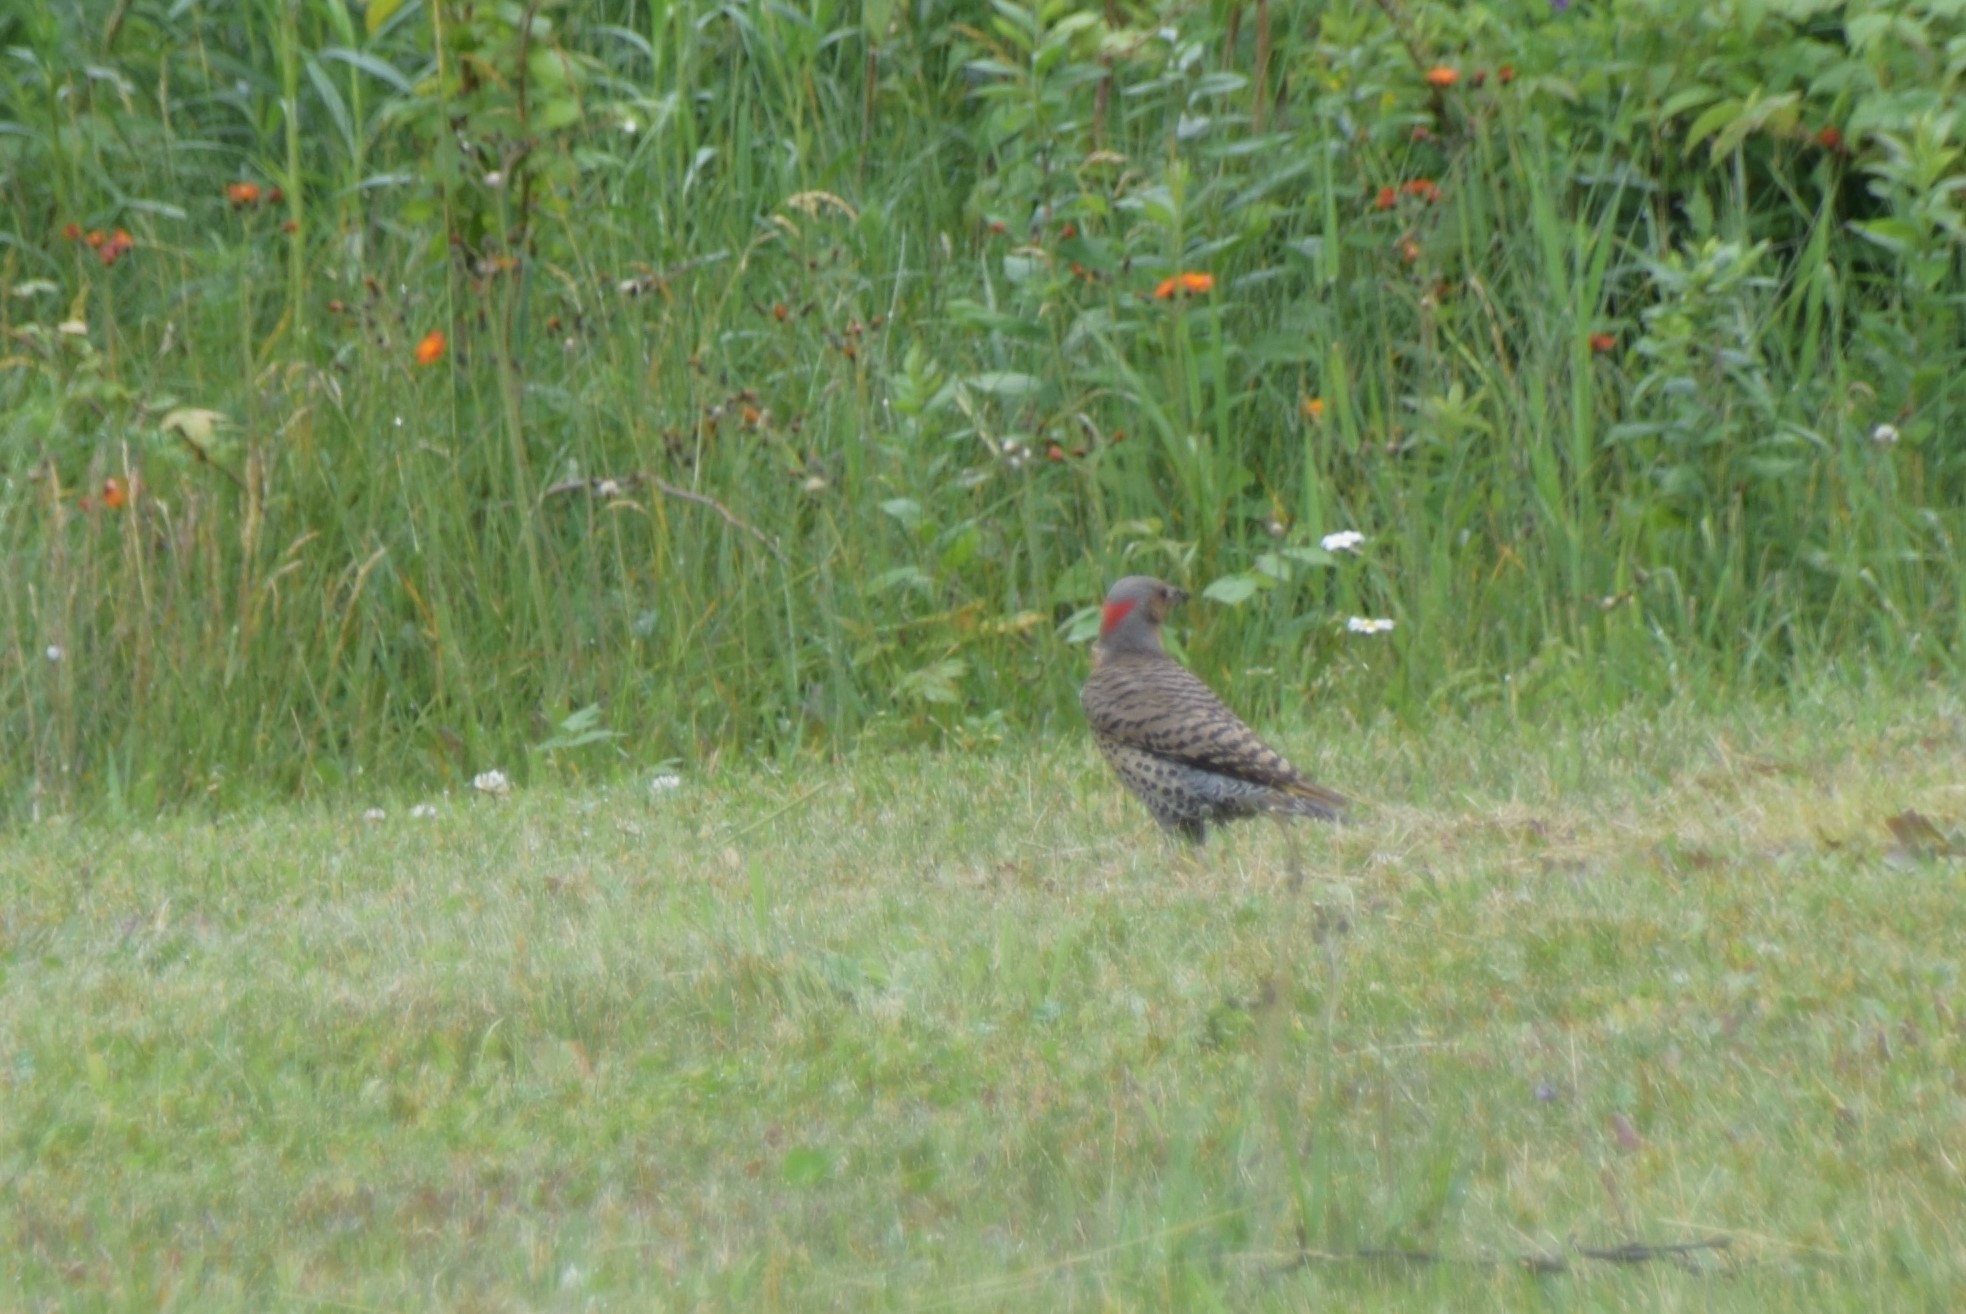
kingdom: Animalia
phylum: Chordata
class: Aves
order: Piciformes
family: Picidae
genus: Colaptes
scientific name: Colaptes auratus
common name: Northern flicker
